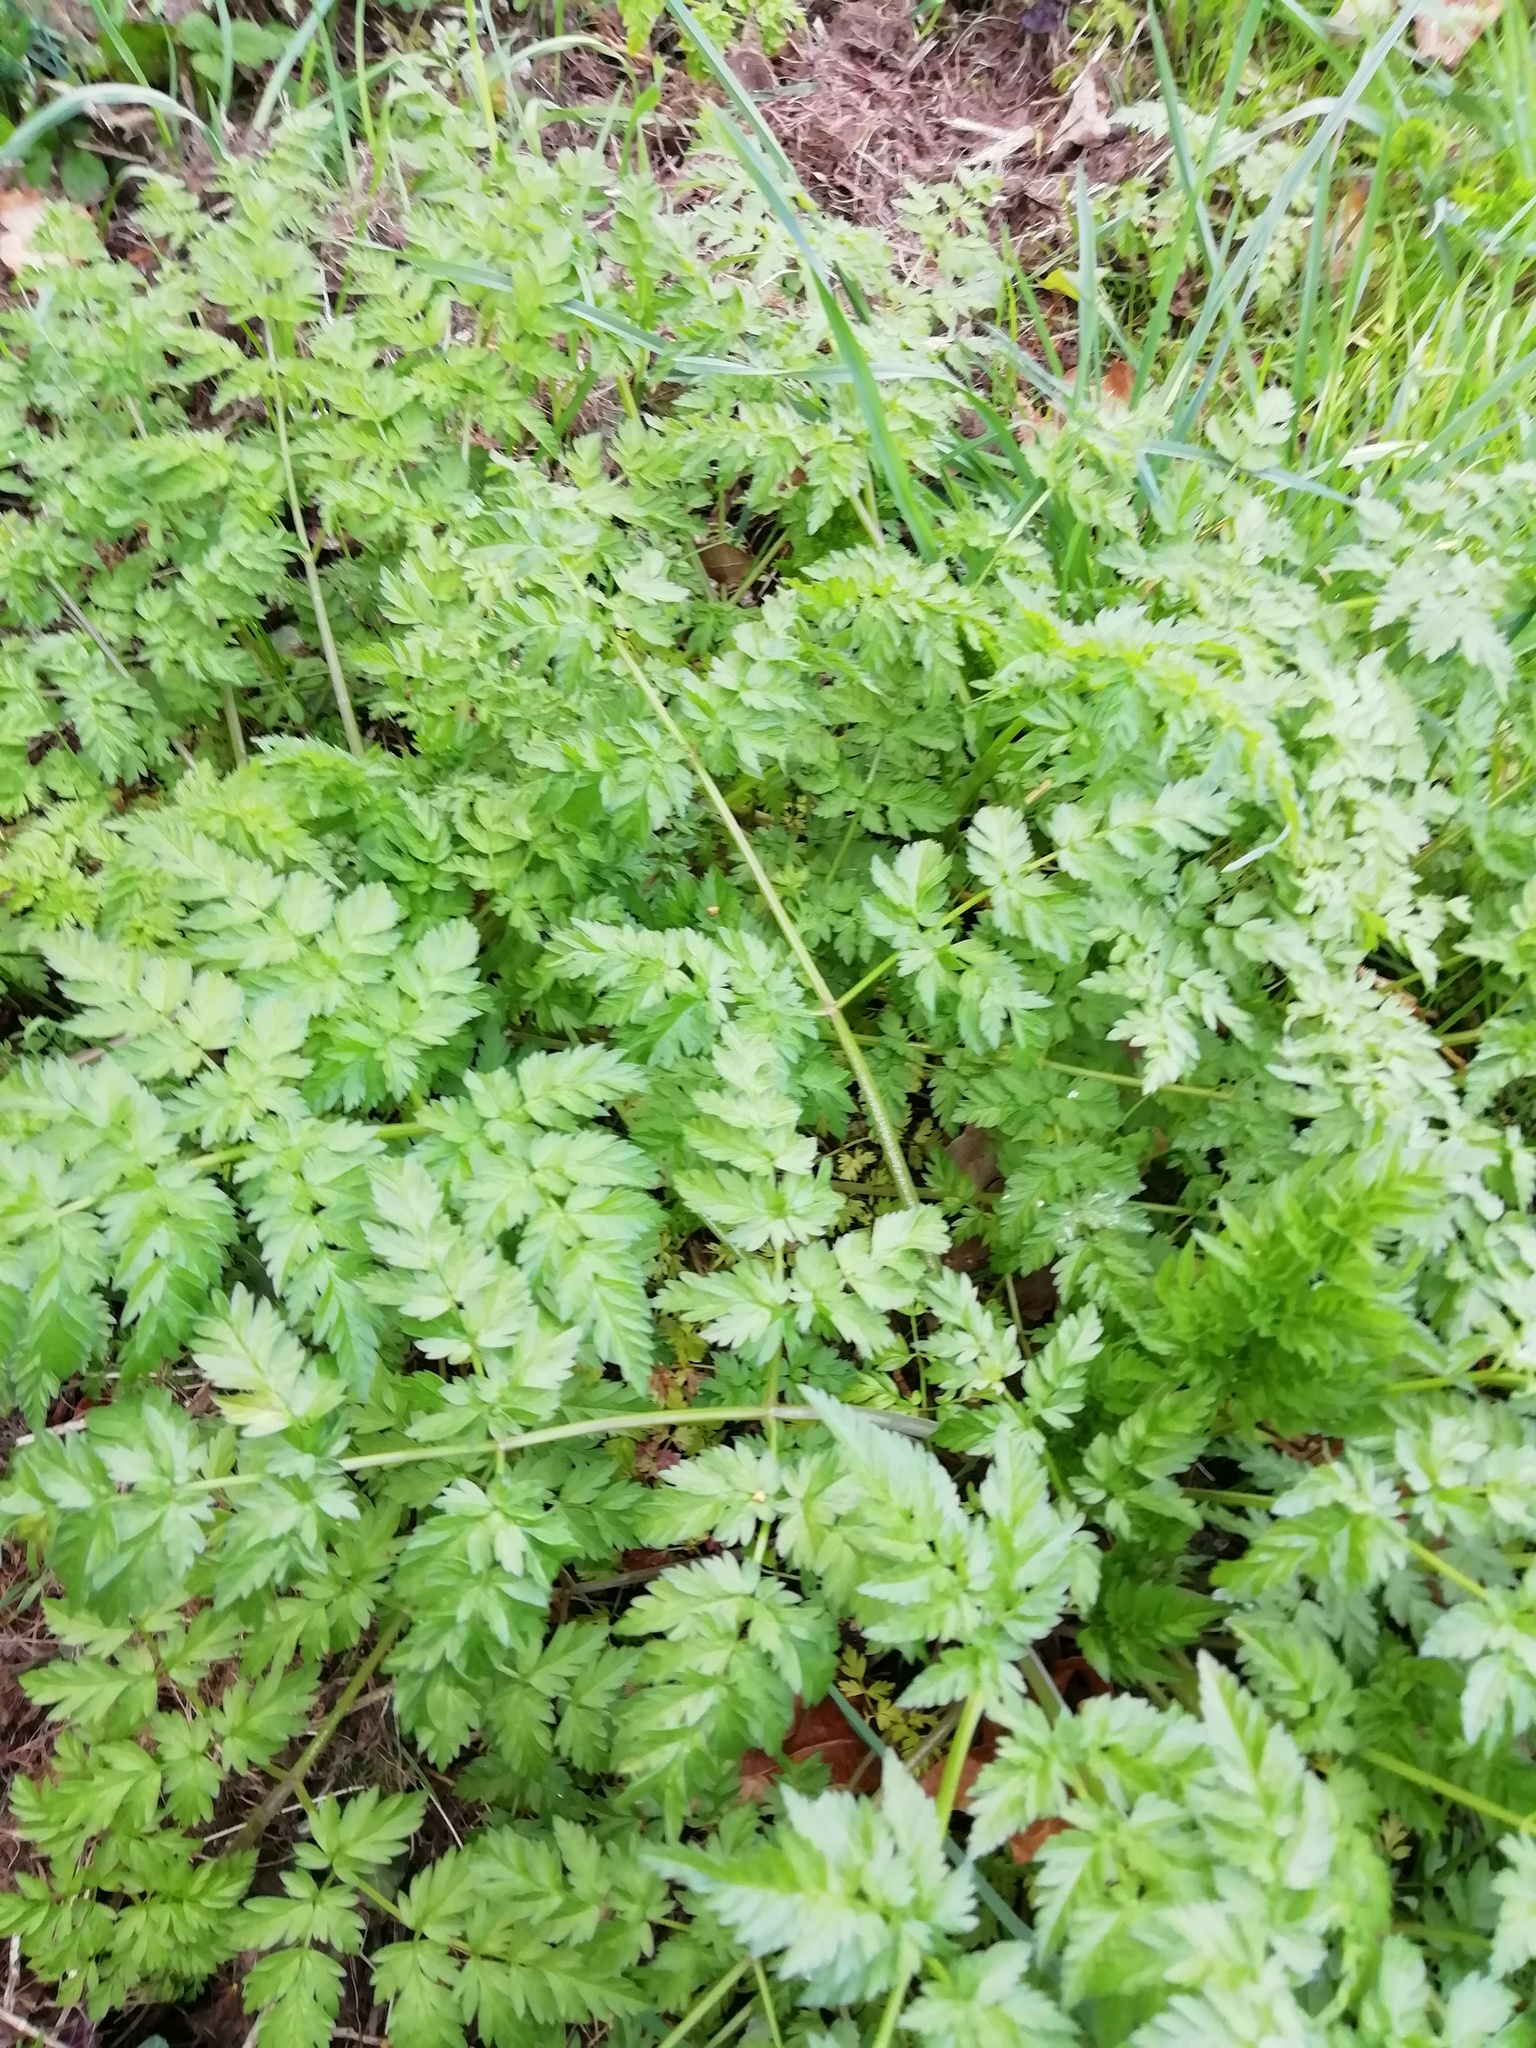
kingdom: Plantae
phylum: Tracheophyta
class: Magnoliopsida
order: Apiales
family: Apiaceae
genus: Anthriscus
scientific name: Anthriscus sylvestris
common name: Cow parsley
